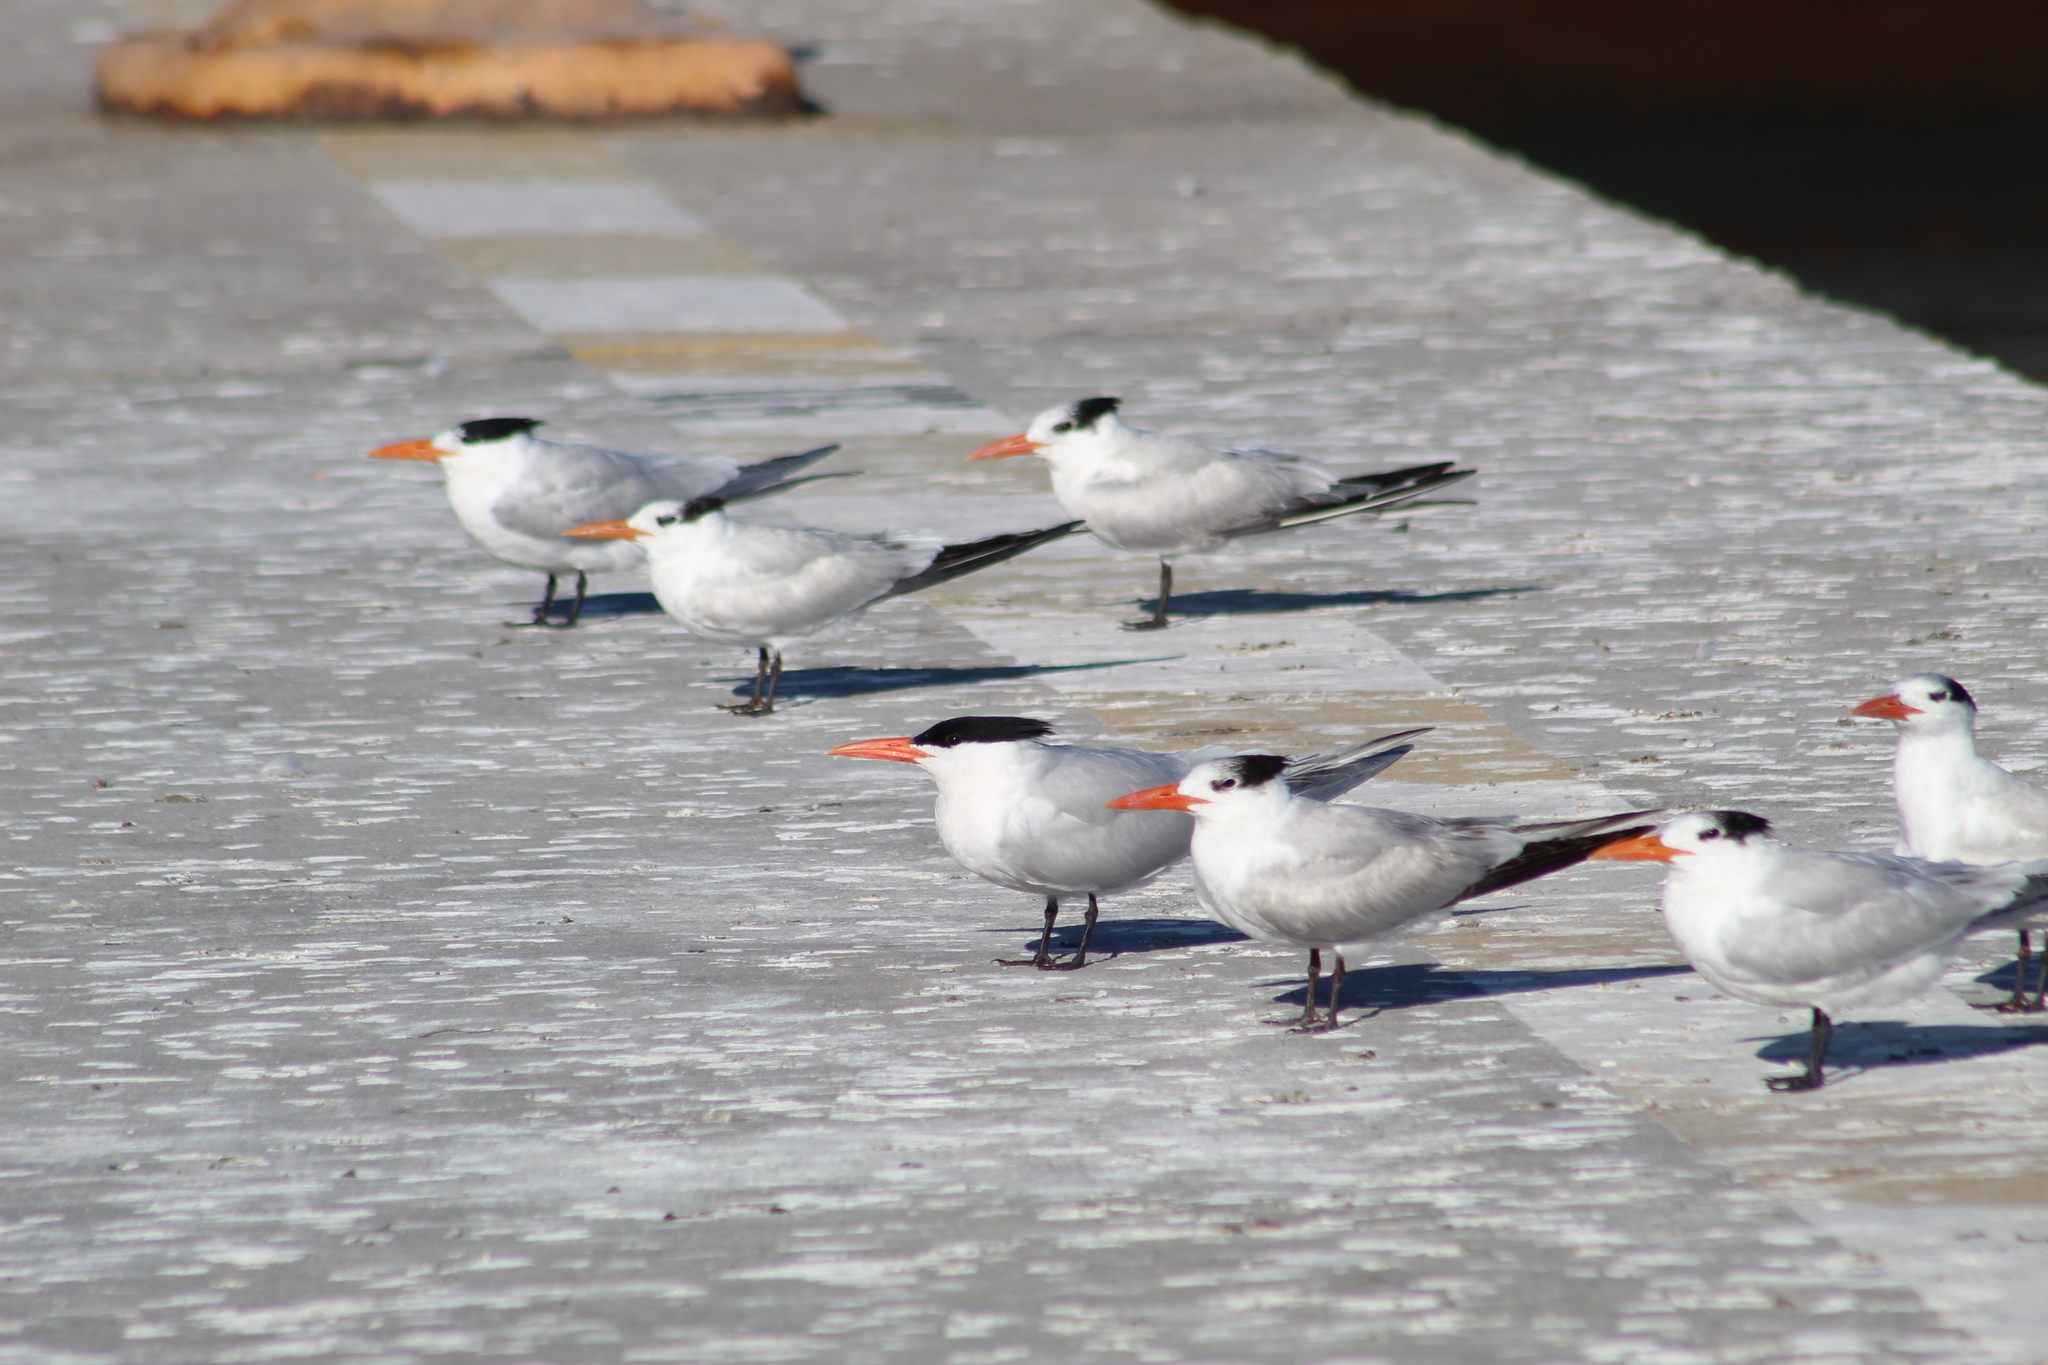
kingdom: Animalia
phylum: Chordata
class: Aves
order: Charadriiformes
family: Laridae
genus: Thalasseus
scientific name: Thalasseus maximus
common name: Royal tern
